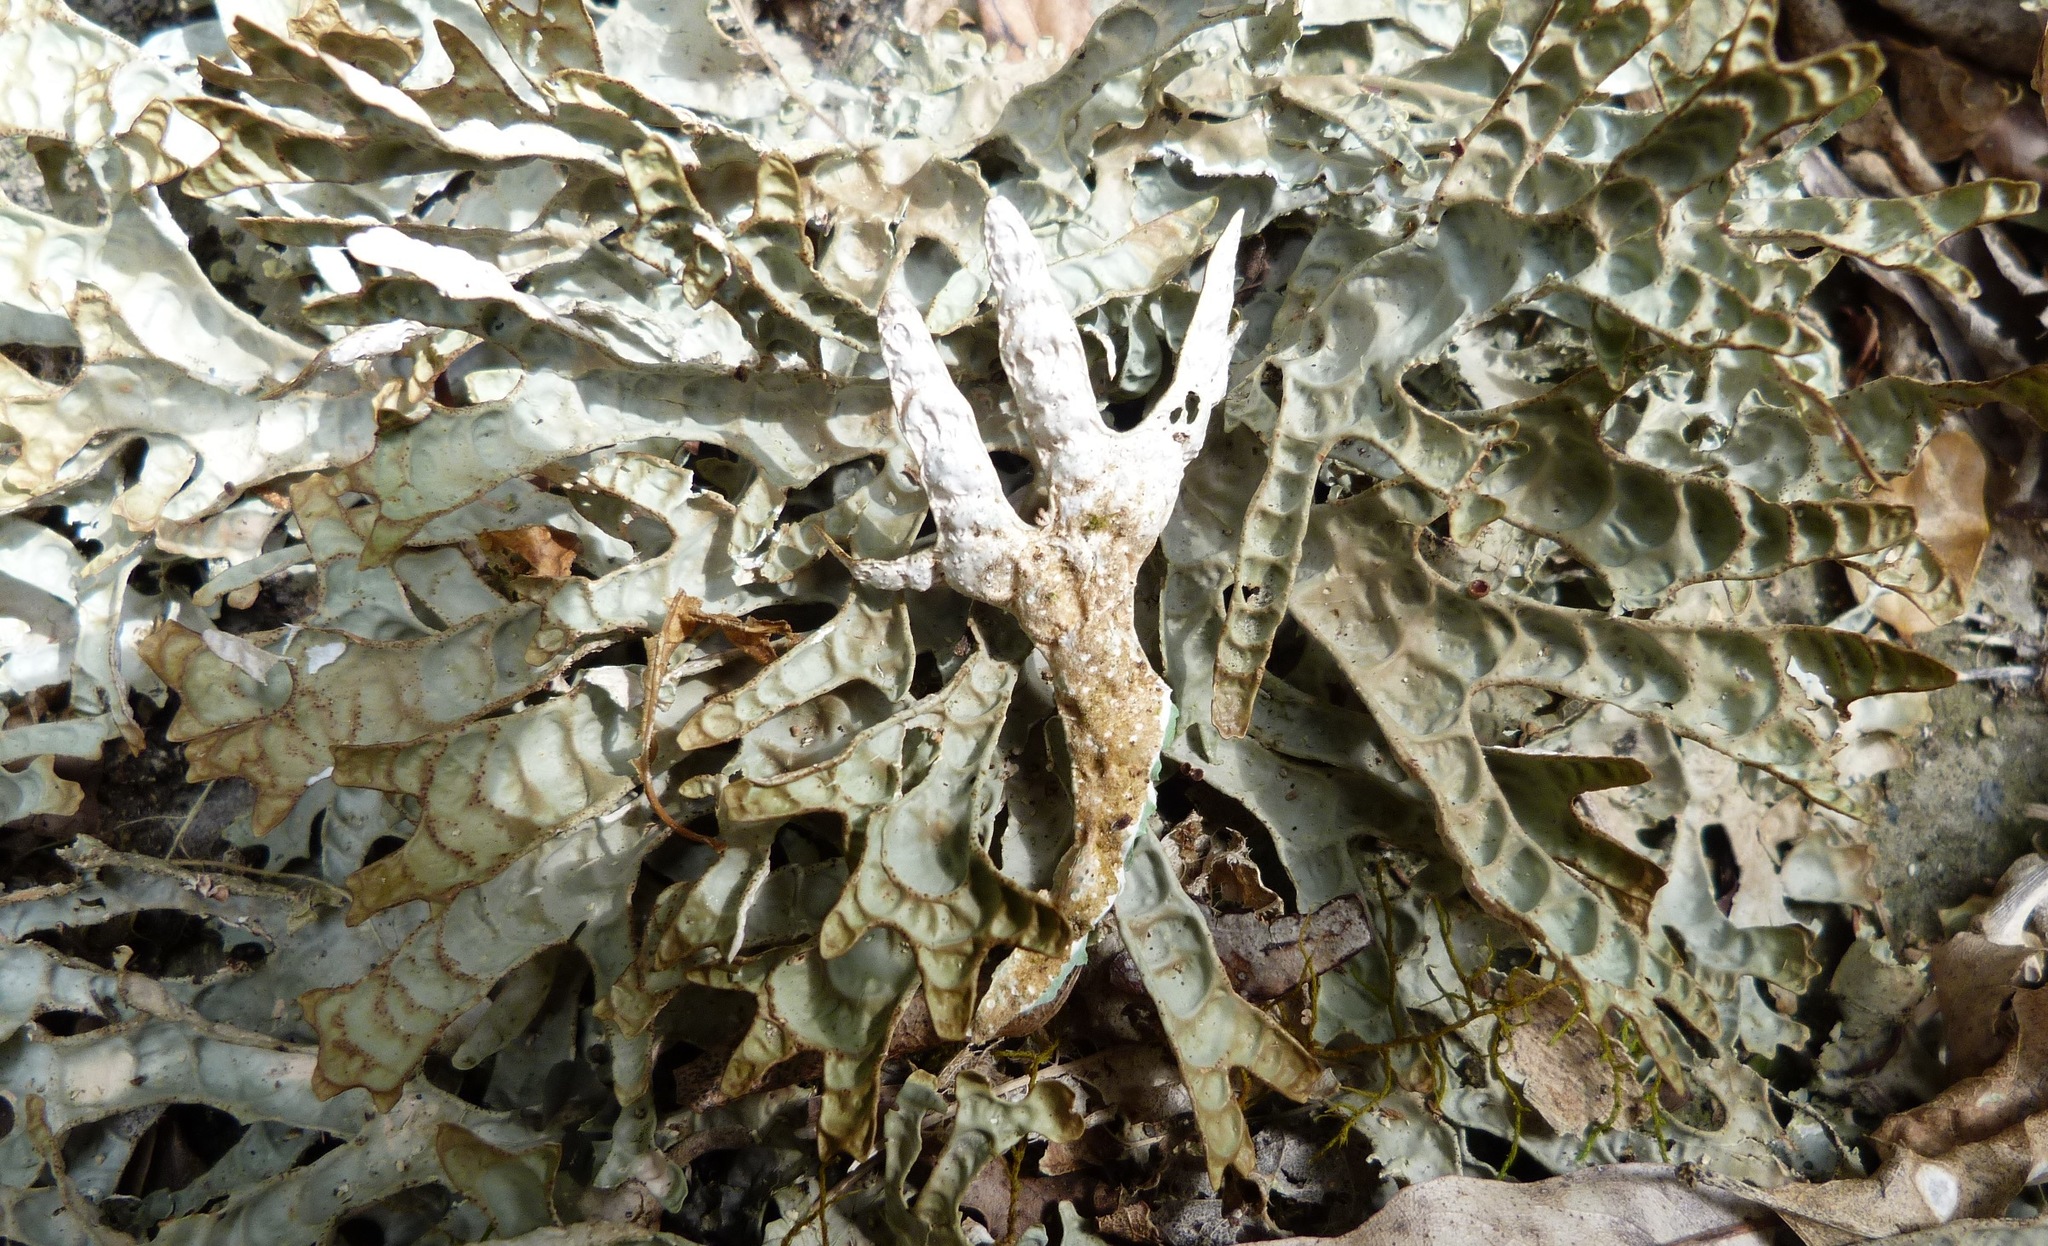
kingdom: Fungi
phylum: Ascomycota
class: Lecanoromycetes
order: Peltigerales
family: Lobariaceae
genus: Pseudocyphellaria
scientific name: Pseudocyphellaria billardierei
